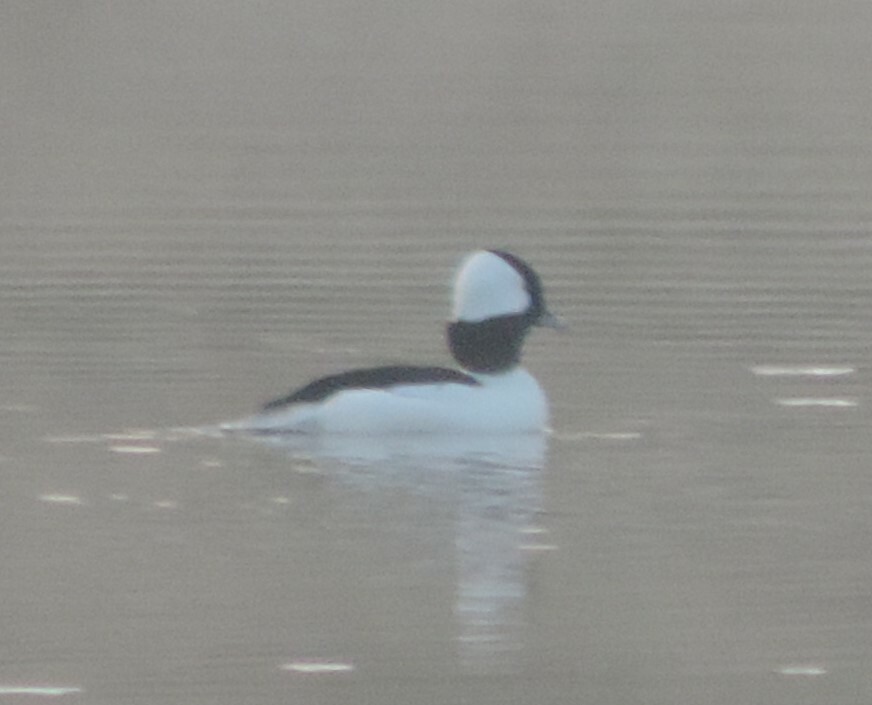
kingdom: Animalia
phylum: Chordata
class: Aves
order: Anseriformes
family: Anatidae
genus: Bucephala
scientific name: Bucephala albeola
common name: Bufflehead
